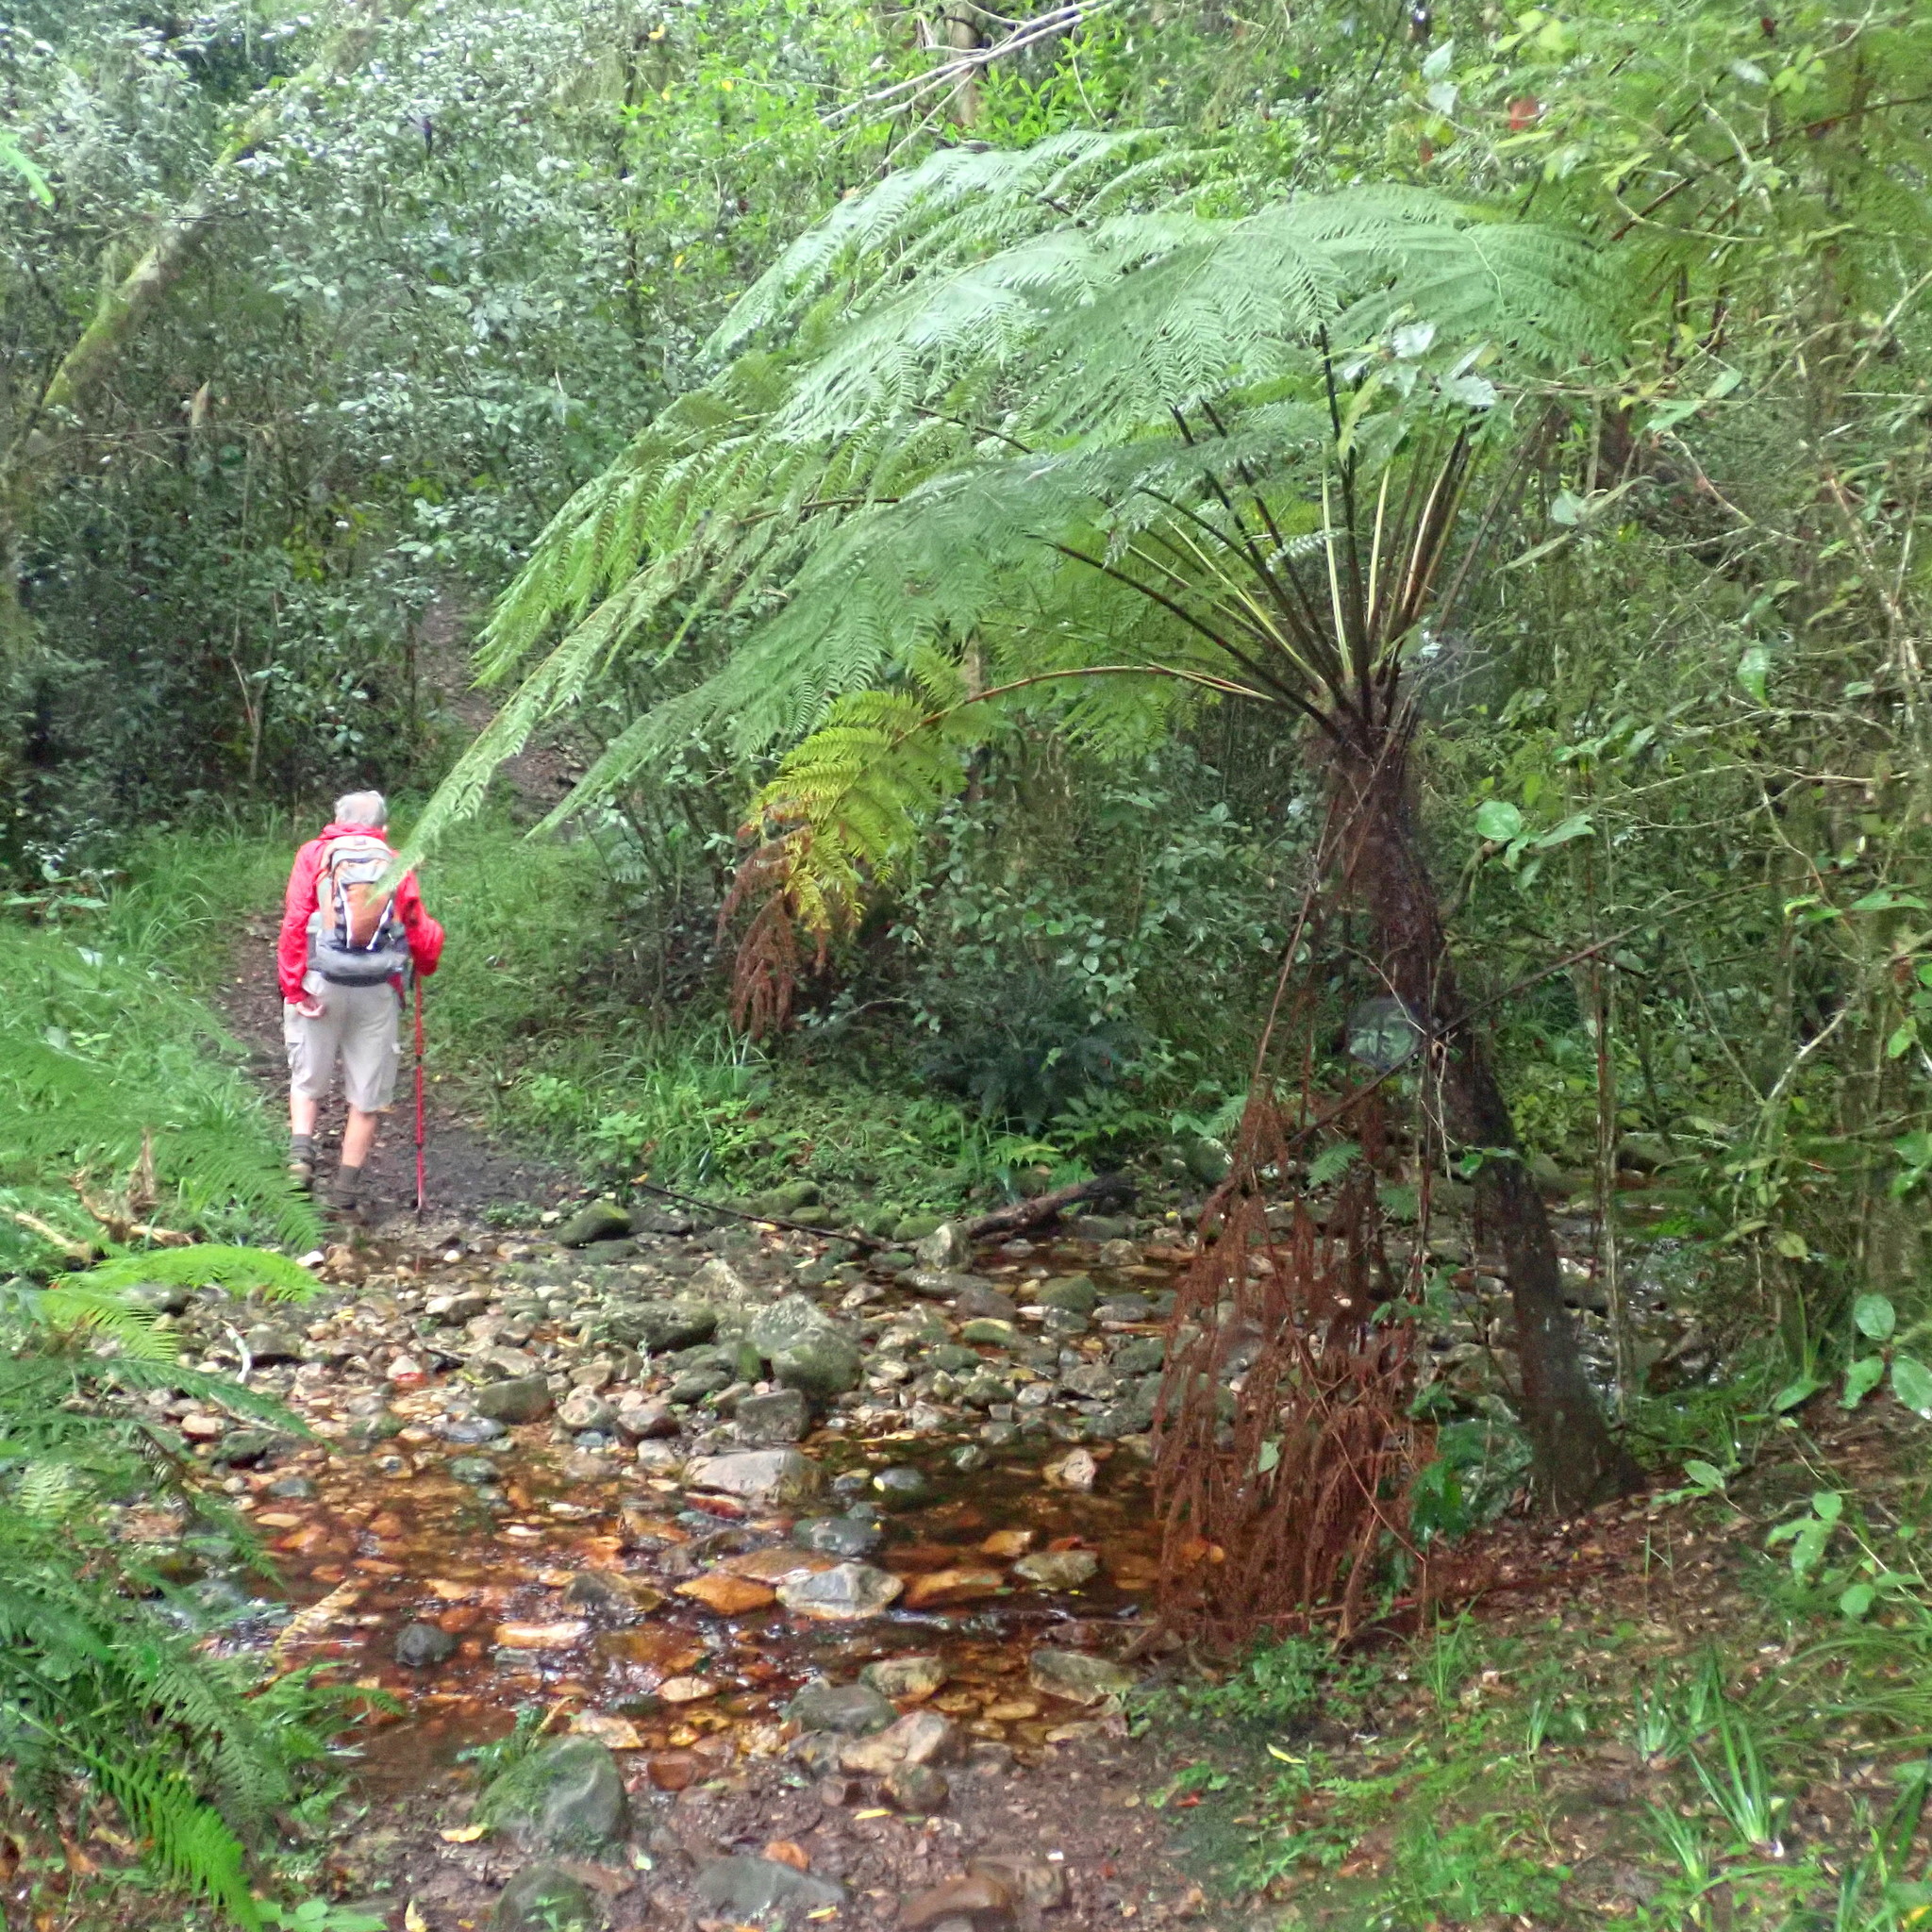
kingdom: Plantae
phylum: Tracheophyta
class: Polypodiopsida
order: Cyatheales
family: Cyatheaceae
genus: Gymnosphaera
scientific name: Gymnosphaera capensis
